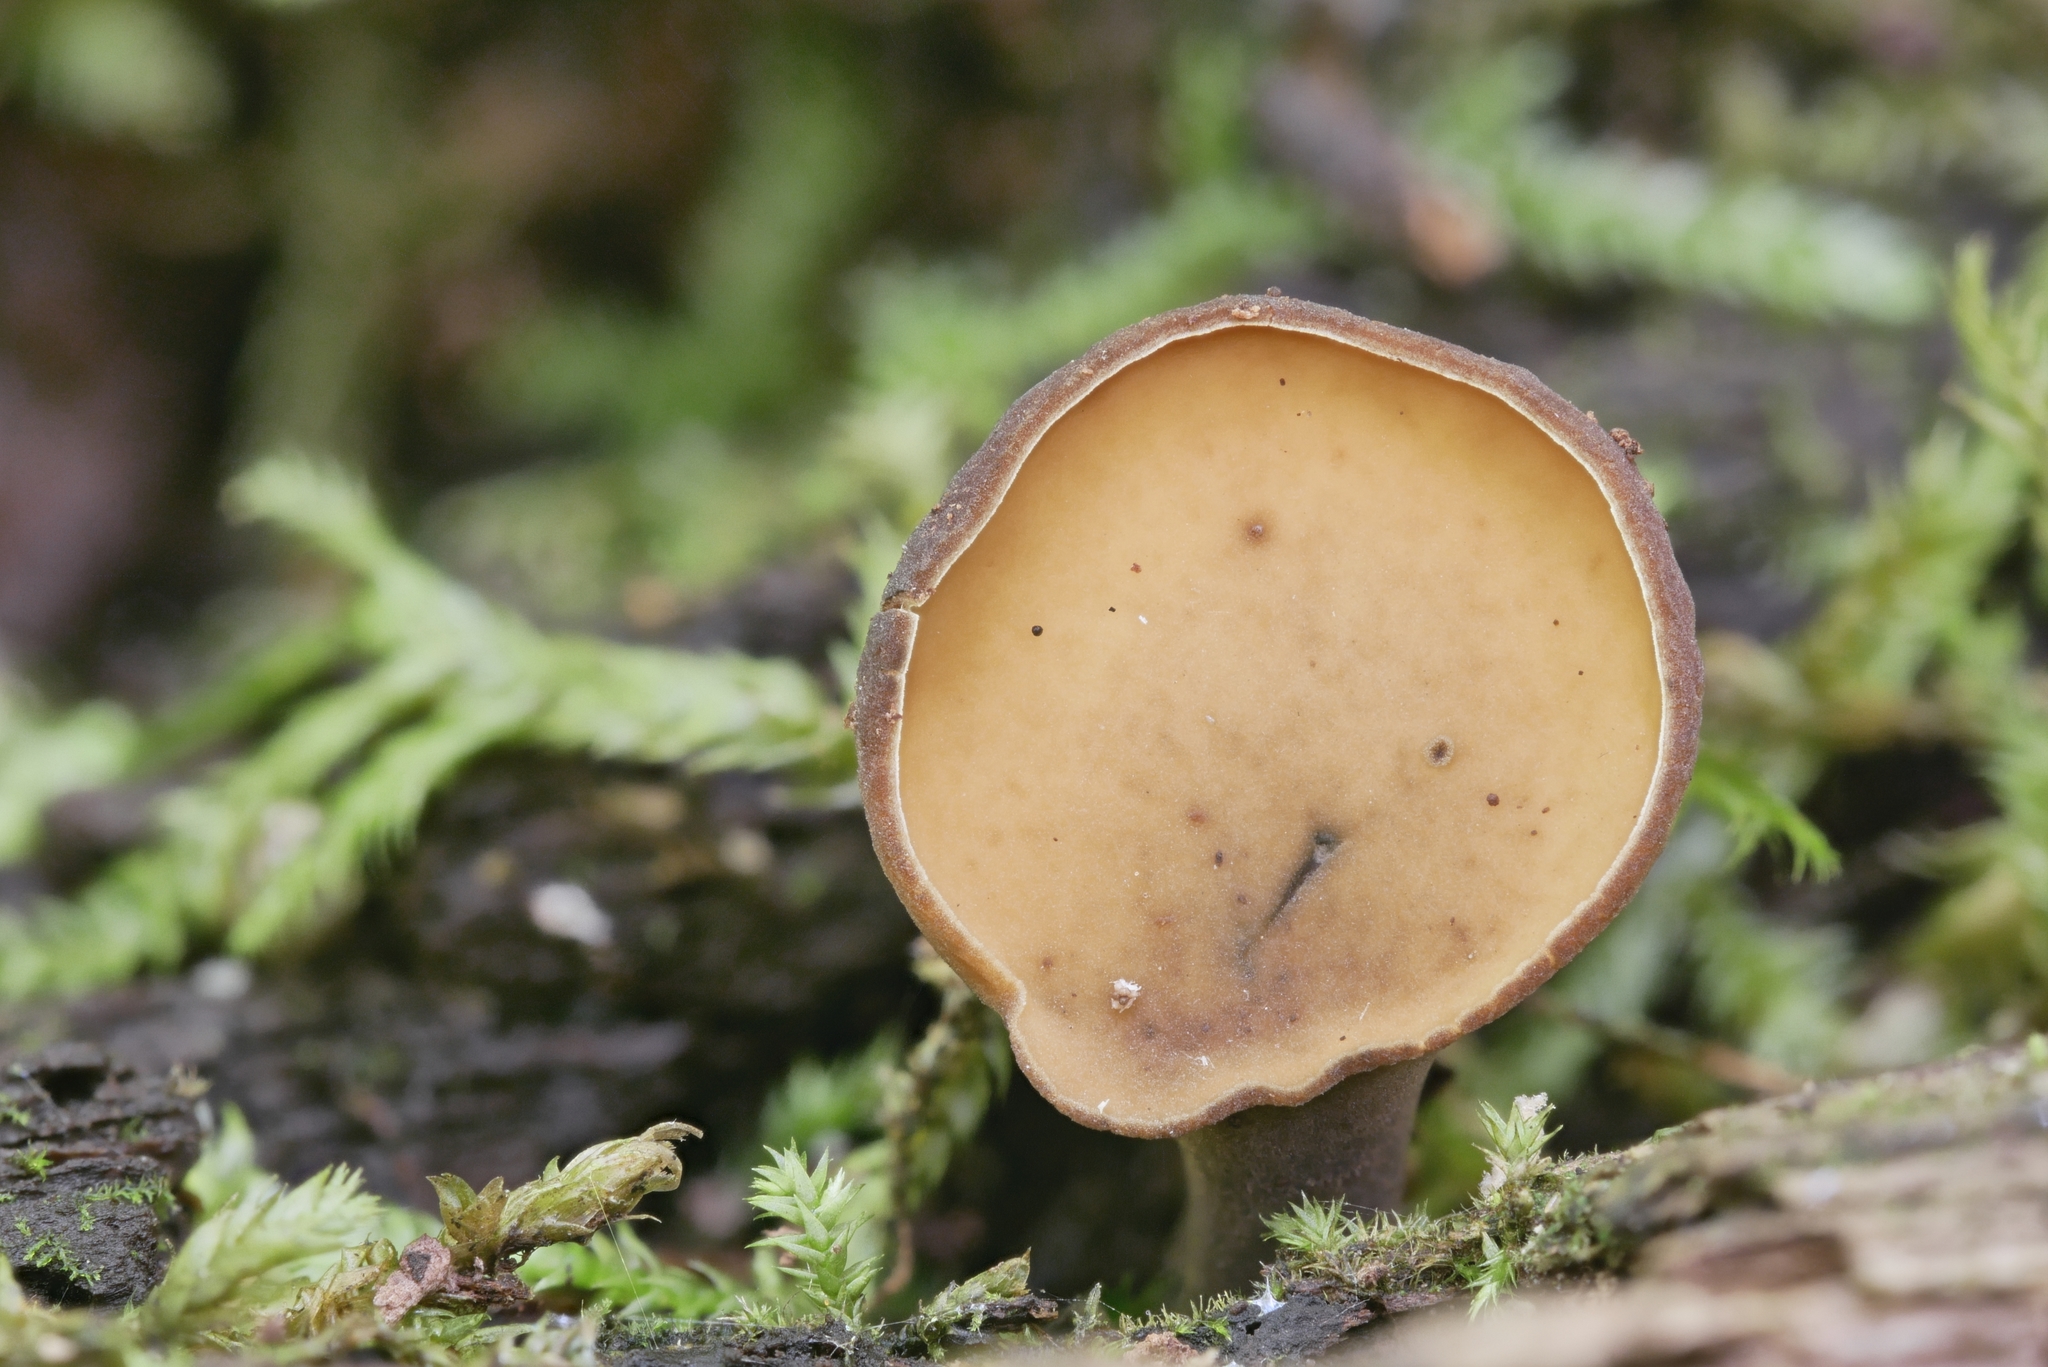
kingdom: Fungi
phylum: Ascomycota
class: Leotiomycetes
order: Helotiales
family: Cenangiaceae
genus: Chlorencoelia
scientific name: Chlorencoelia versiformis
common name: Flea's ear
